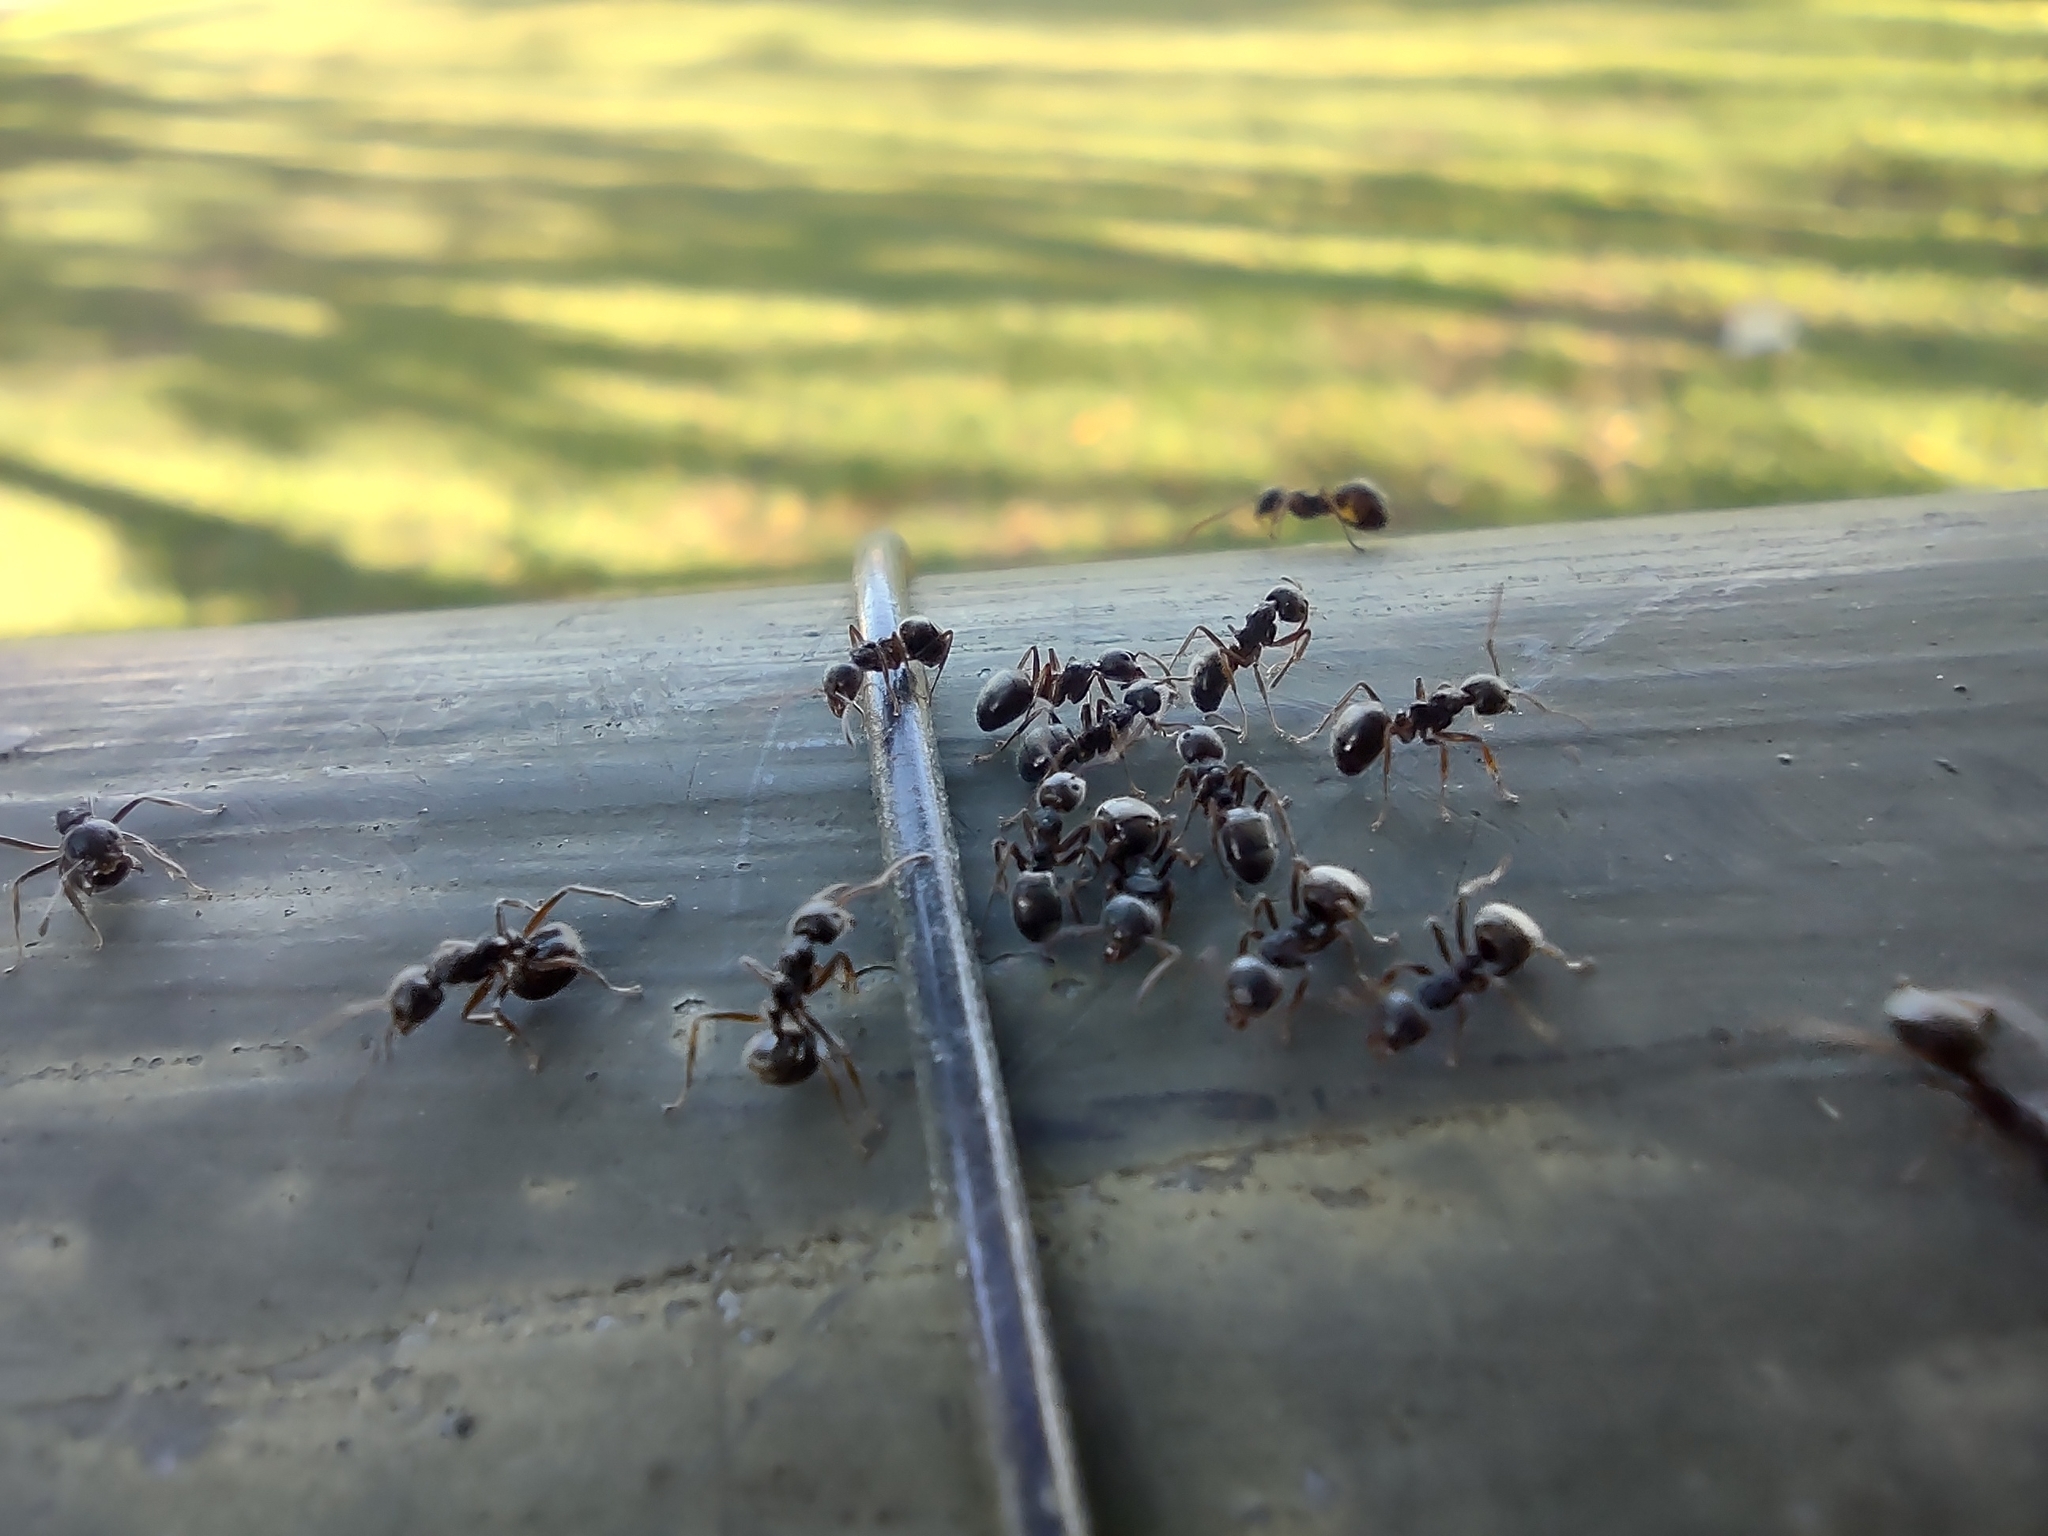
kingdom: Animalia
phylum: Arthropoda
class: Insecta
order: Hymenoptera
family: Formicidae
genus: Dolichoderus
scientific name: Dolichoderus thoracicus
